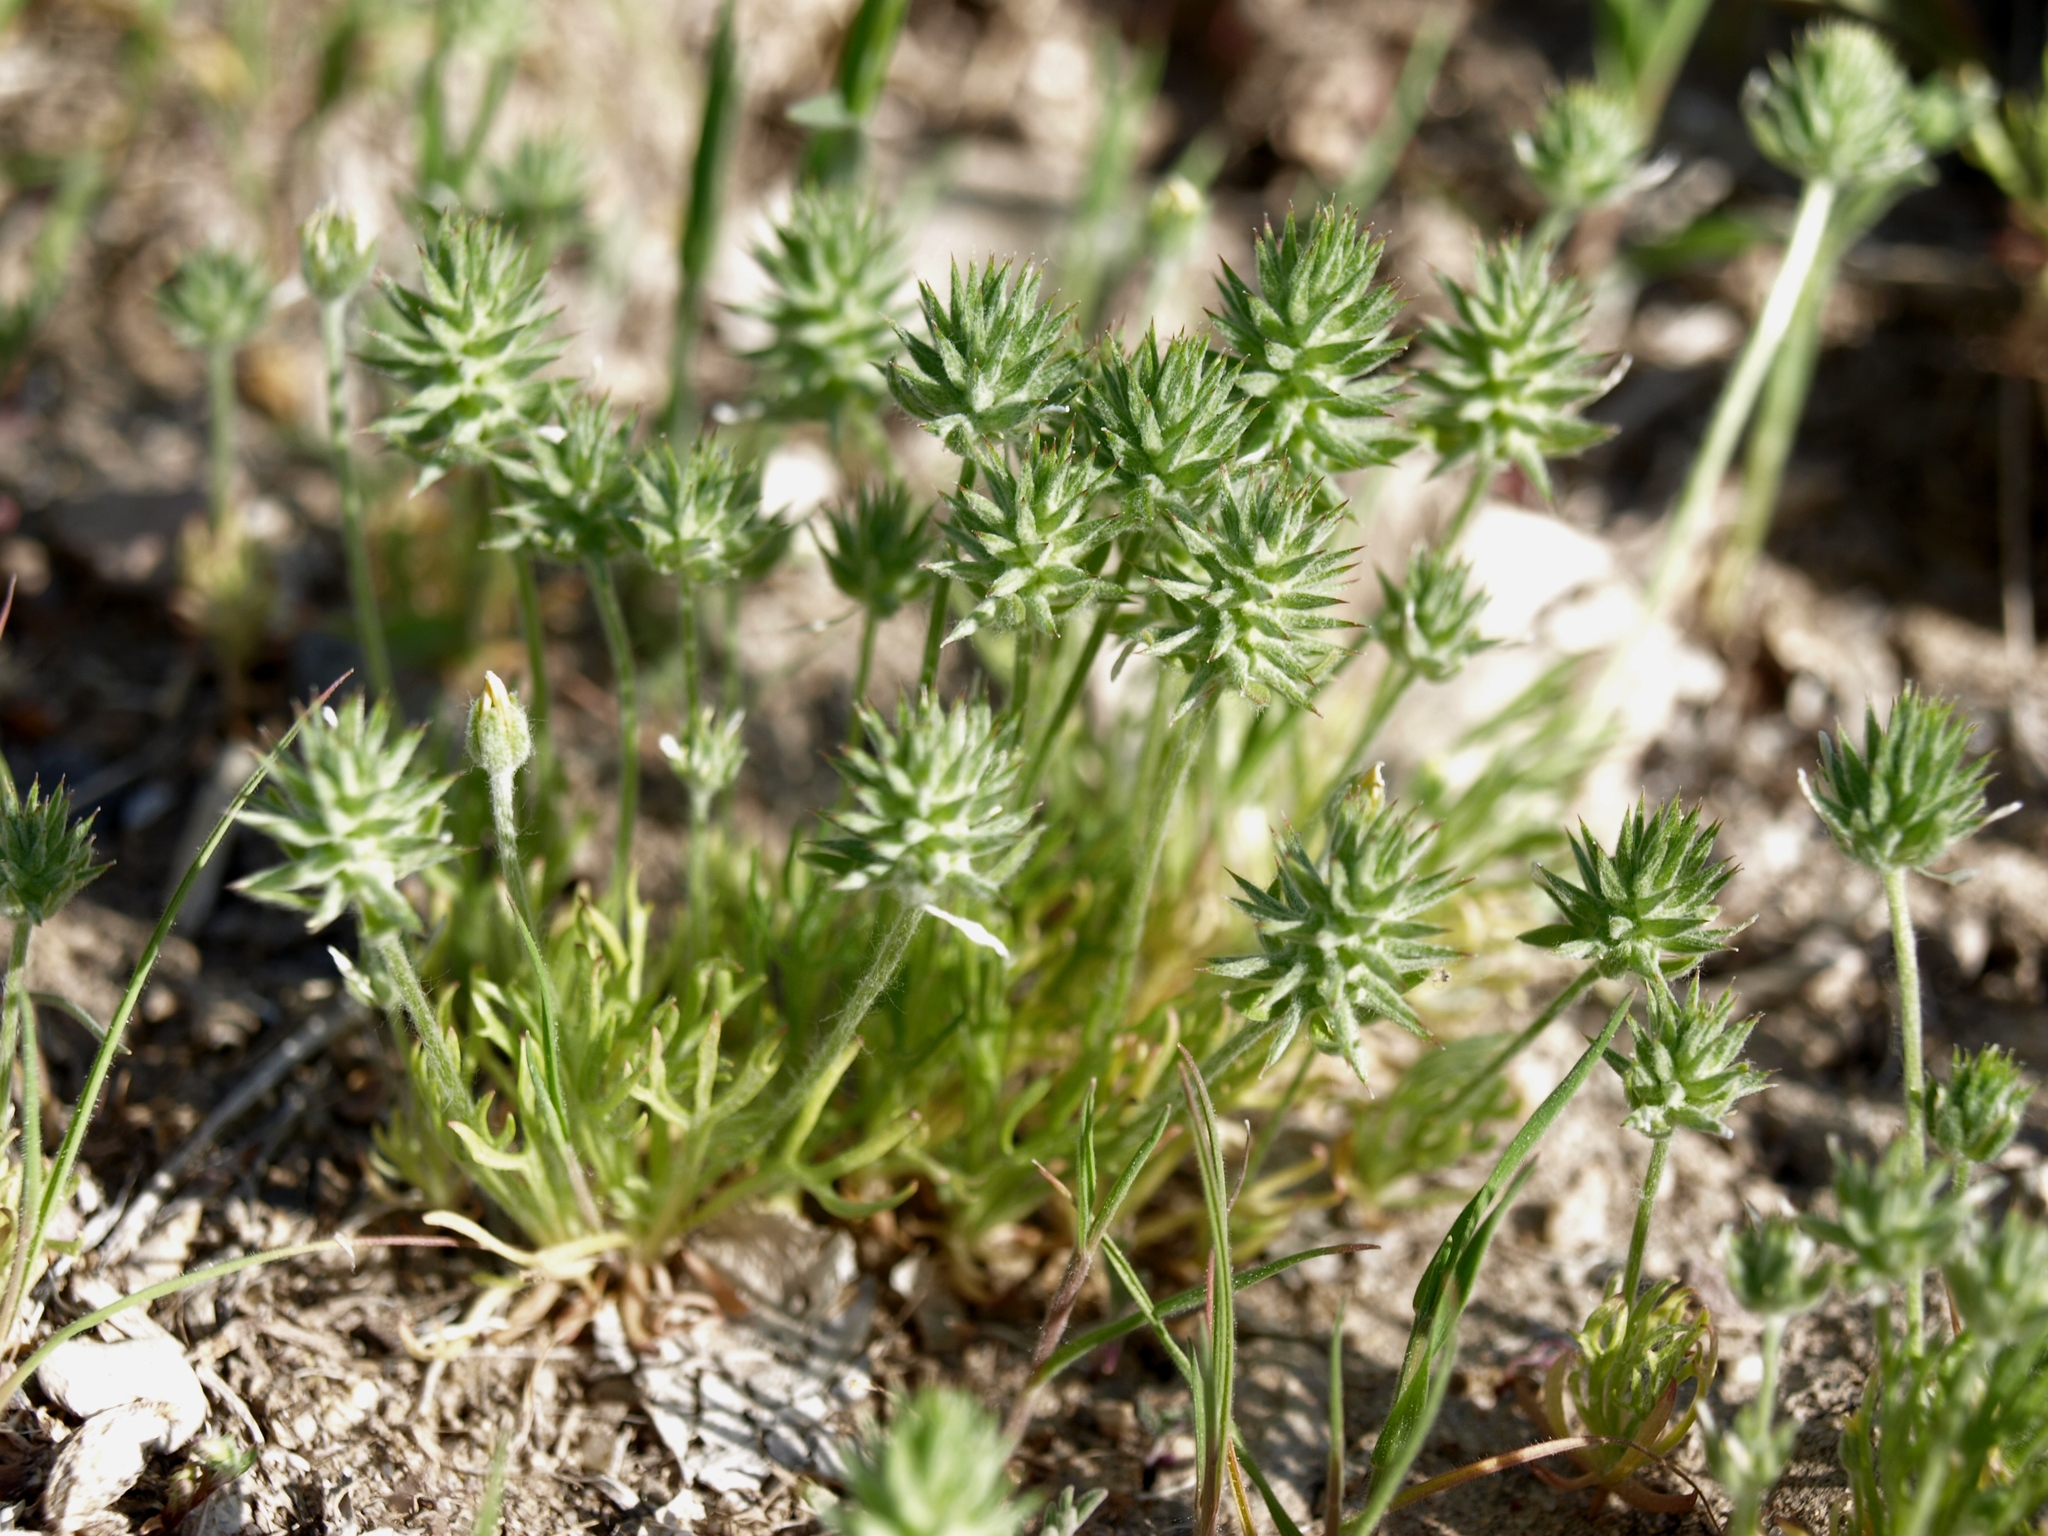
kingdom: Plantae
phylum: Tracheophyta
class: Magnoliopsida
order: Ranunculales
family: Ranunculaceae
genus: Ceratocephala
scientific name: Ceratocephala orthoceras
